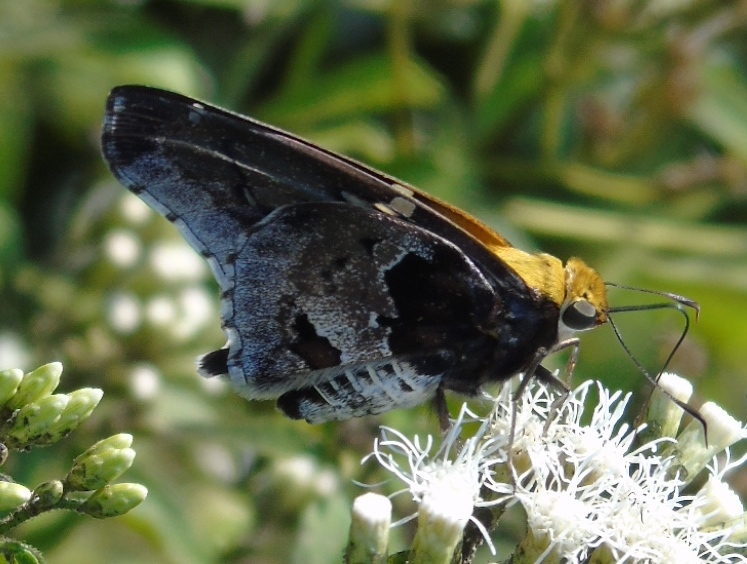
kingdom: Animalia
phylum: Arthropoda
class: Insecta
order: Lepidoptera
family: Hesperiidae
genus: Proteides
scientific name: Proteides mercurius
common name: Mercurial skipper
